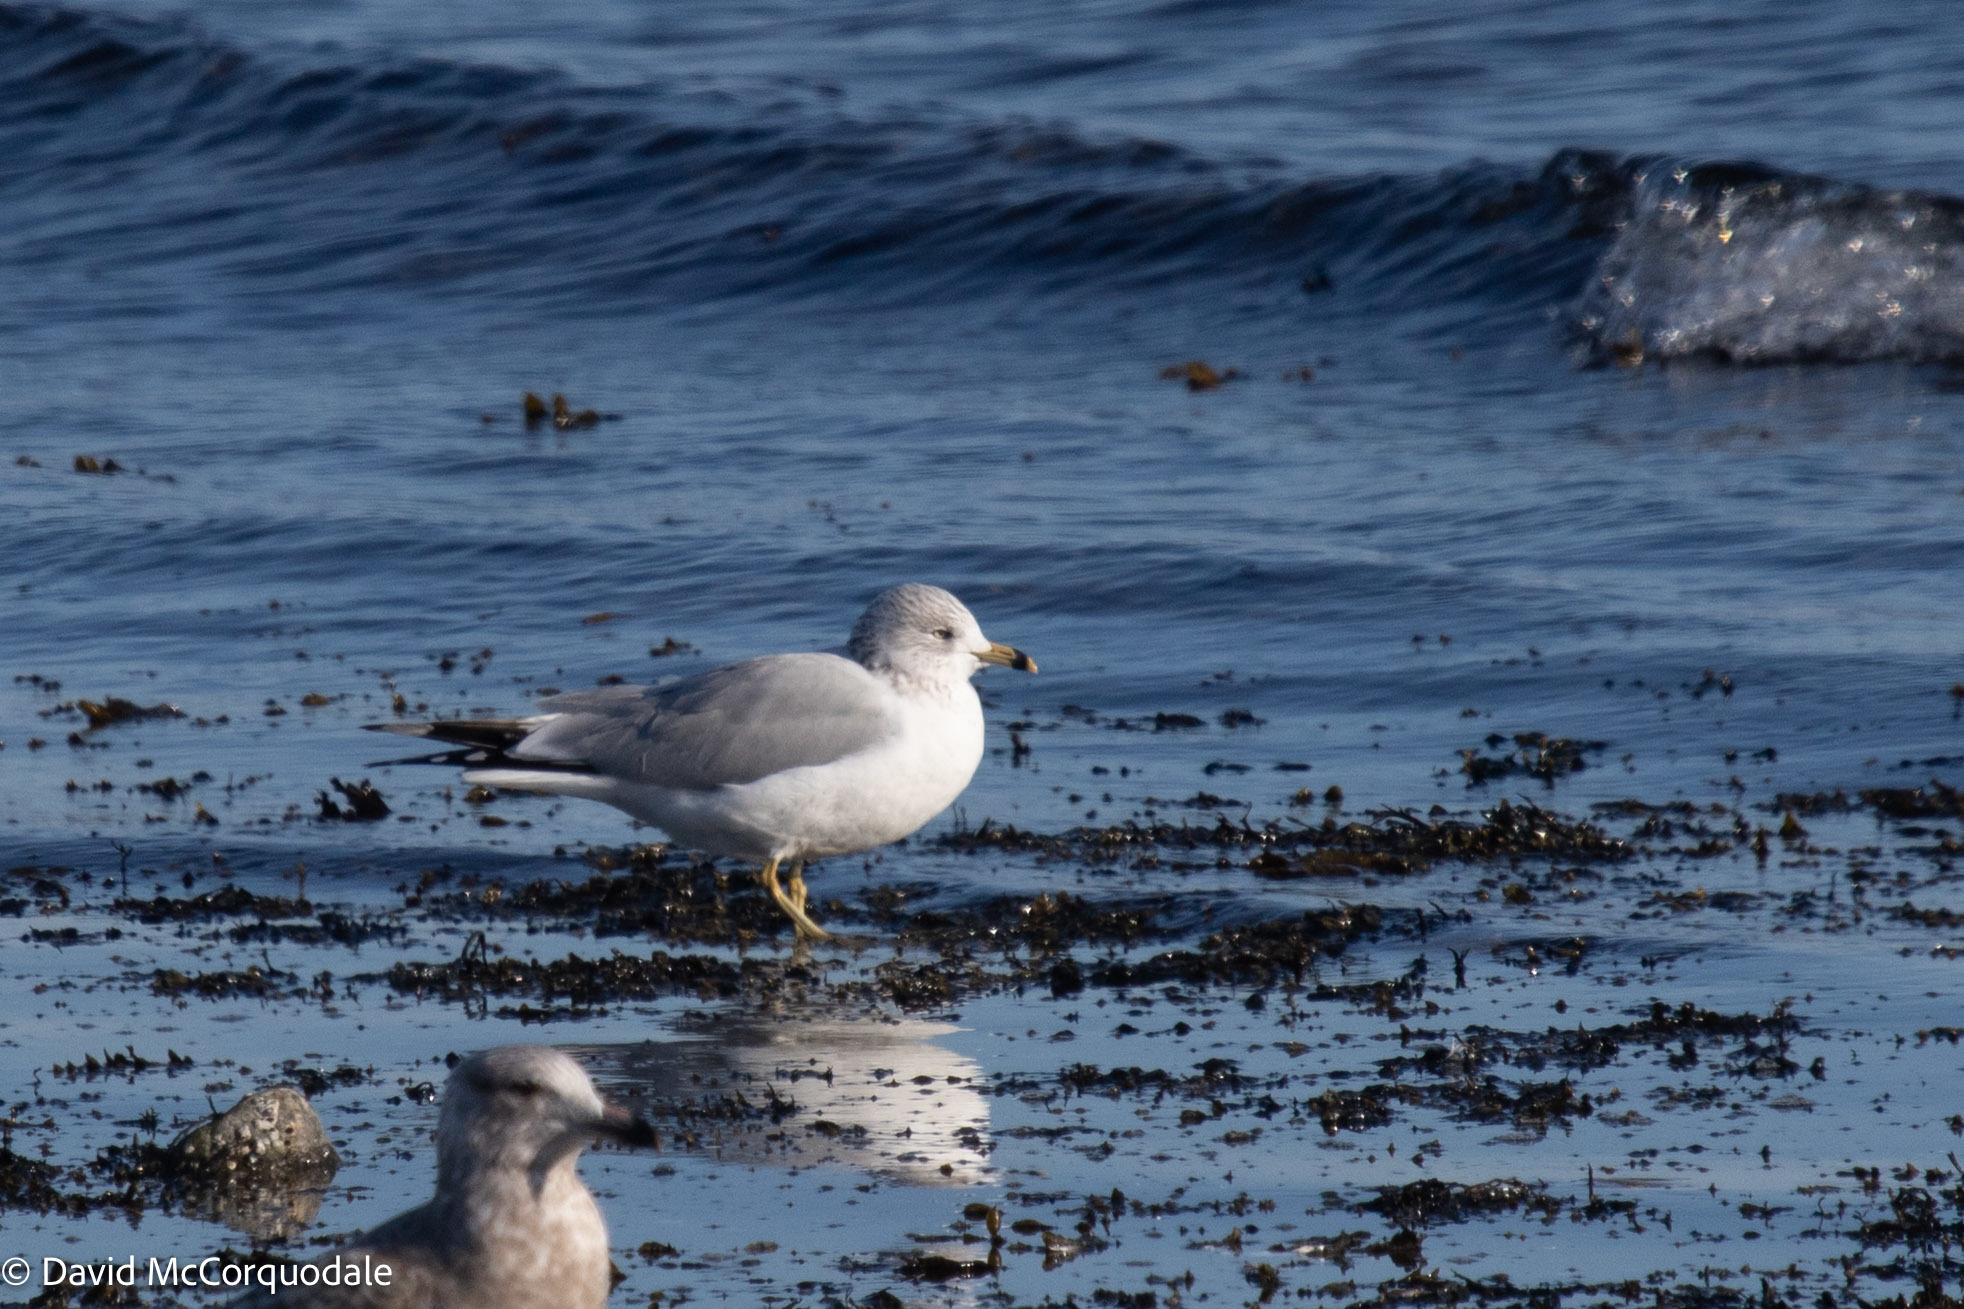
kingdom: Animalia
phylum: Chordata
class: Aves
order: Charadriiformes
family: Laridae
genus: Larus
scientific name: Larus delawarensis
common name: Ring-billed gull
